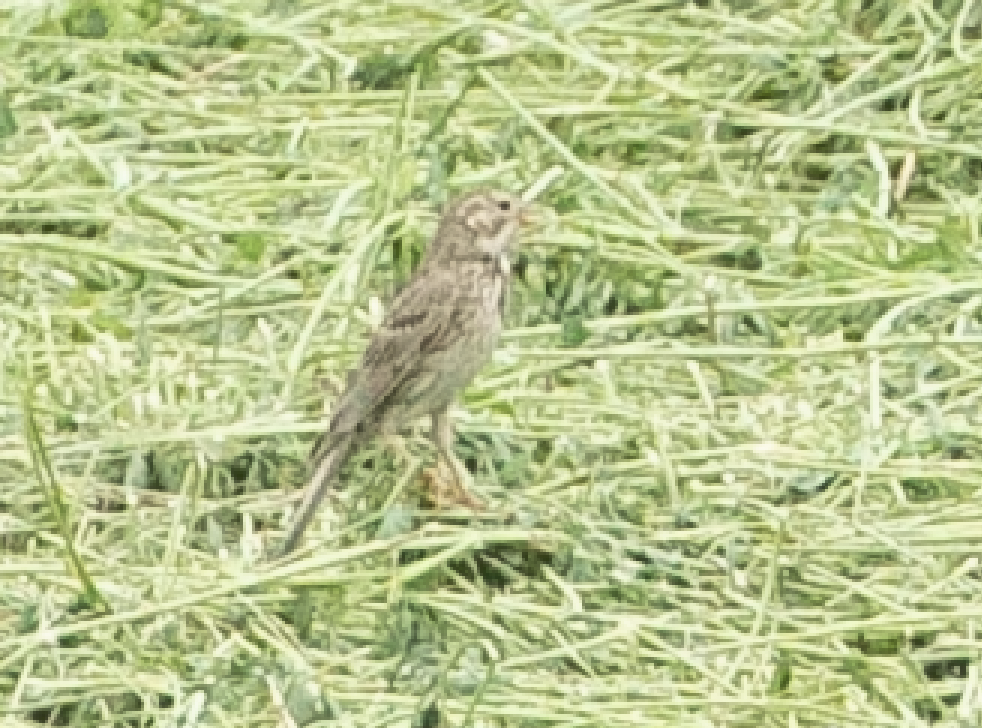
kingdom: Animalia
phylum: Chordata
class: Aves
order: Passeriformes
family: Emberizidae
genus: Emberiza
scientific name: Emberiza calandra
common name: Corn bunting
